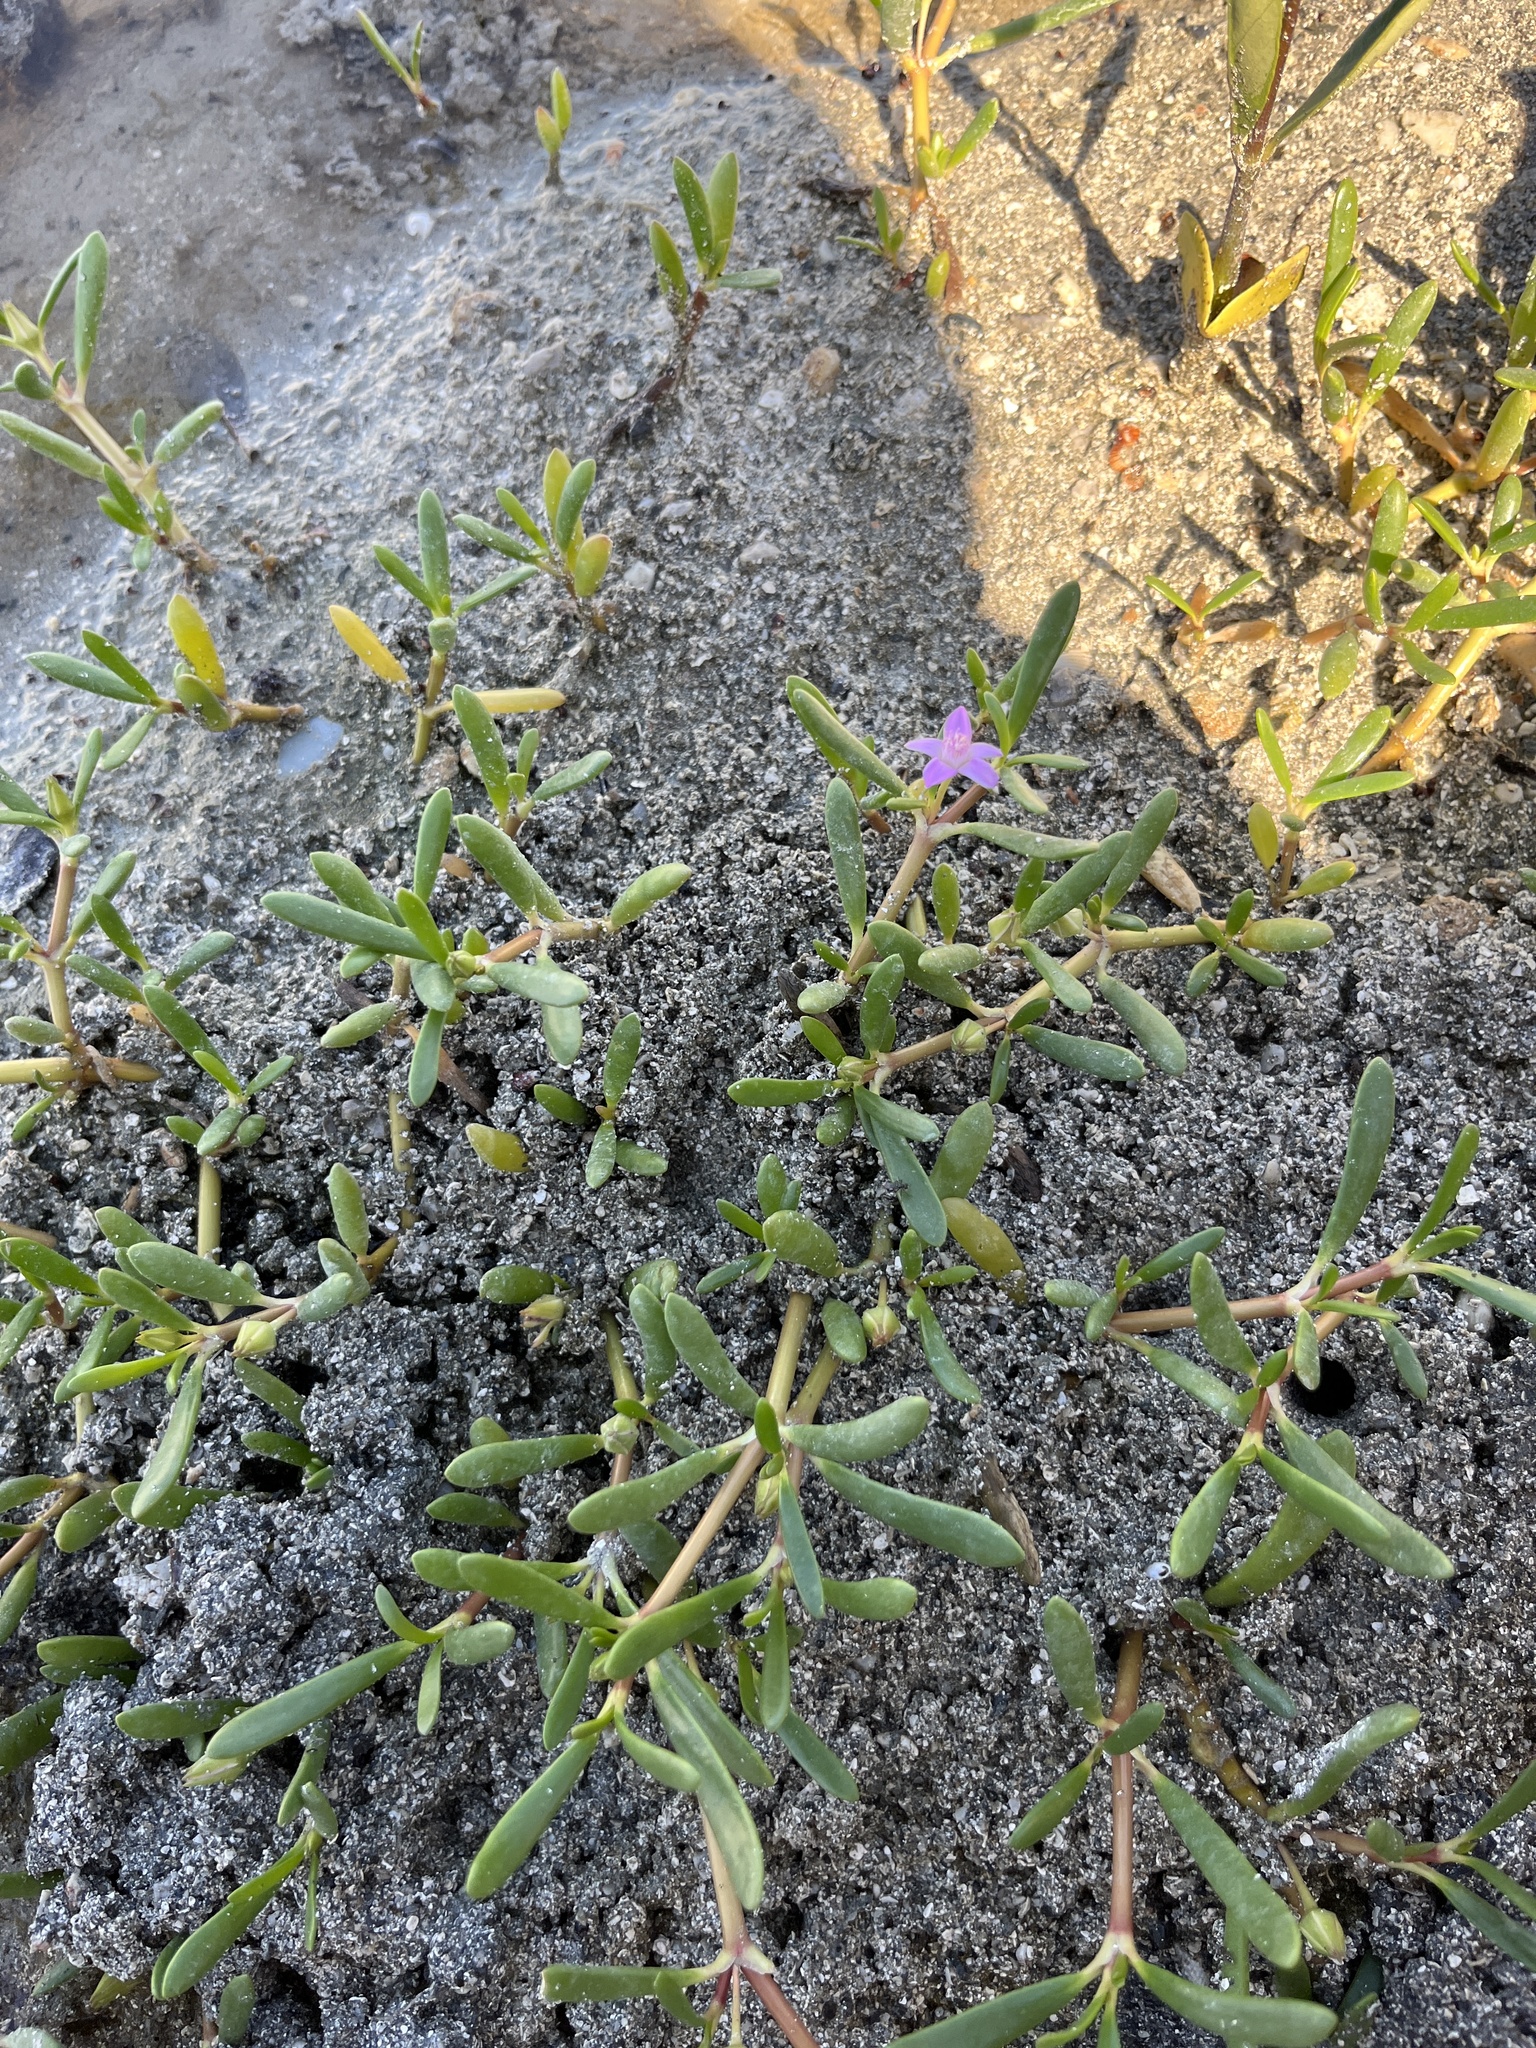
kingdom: Plantae
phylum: Tracheophyta
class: Magnoliopsida
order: Caryophyllales
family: Aizoaceae
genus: Sesuvium
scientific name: Sesuvium portulacastrum
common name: Sea-purslane
